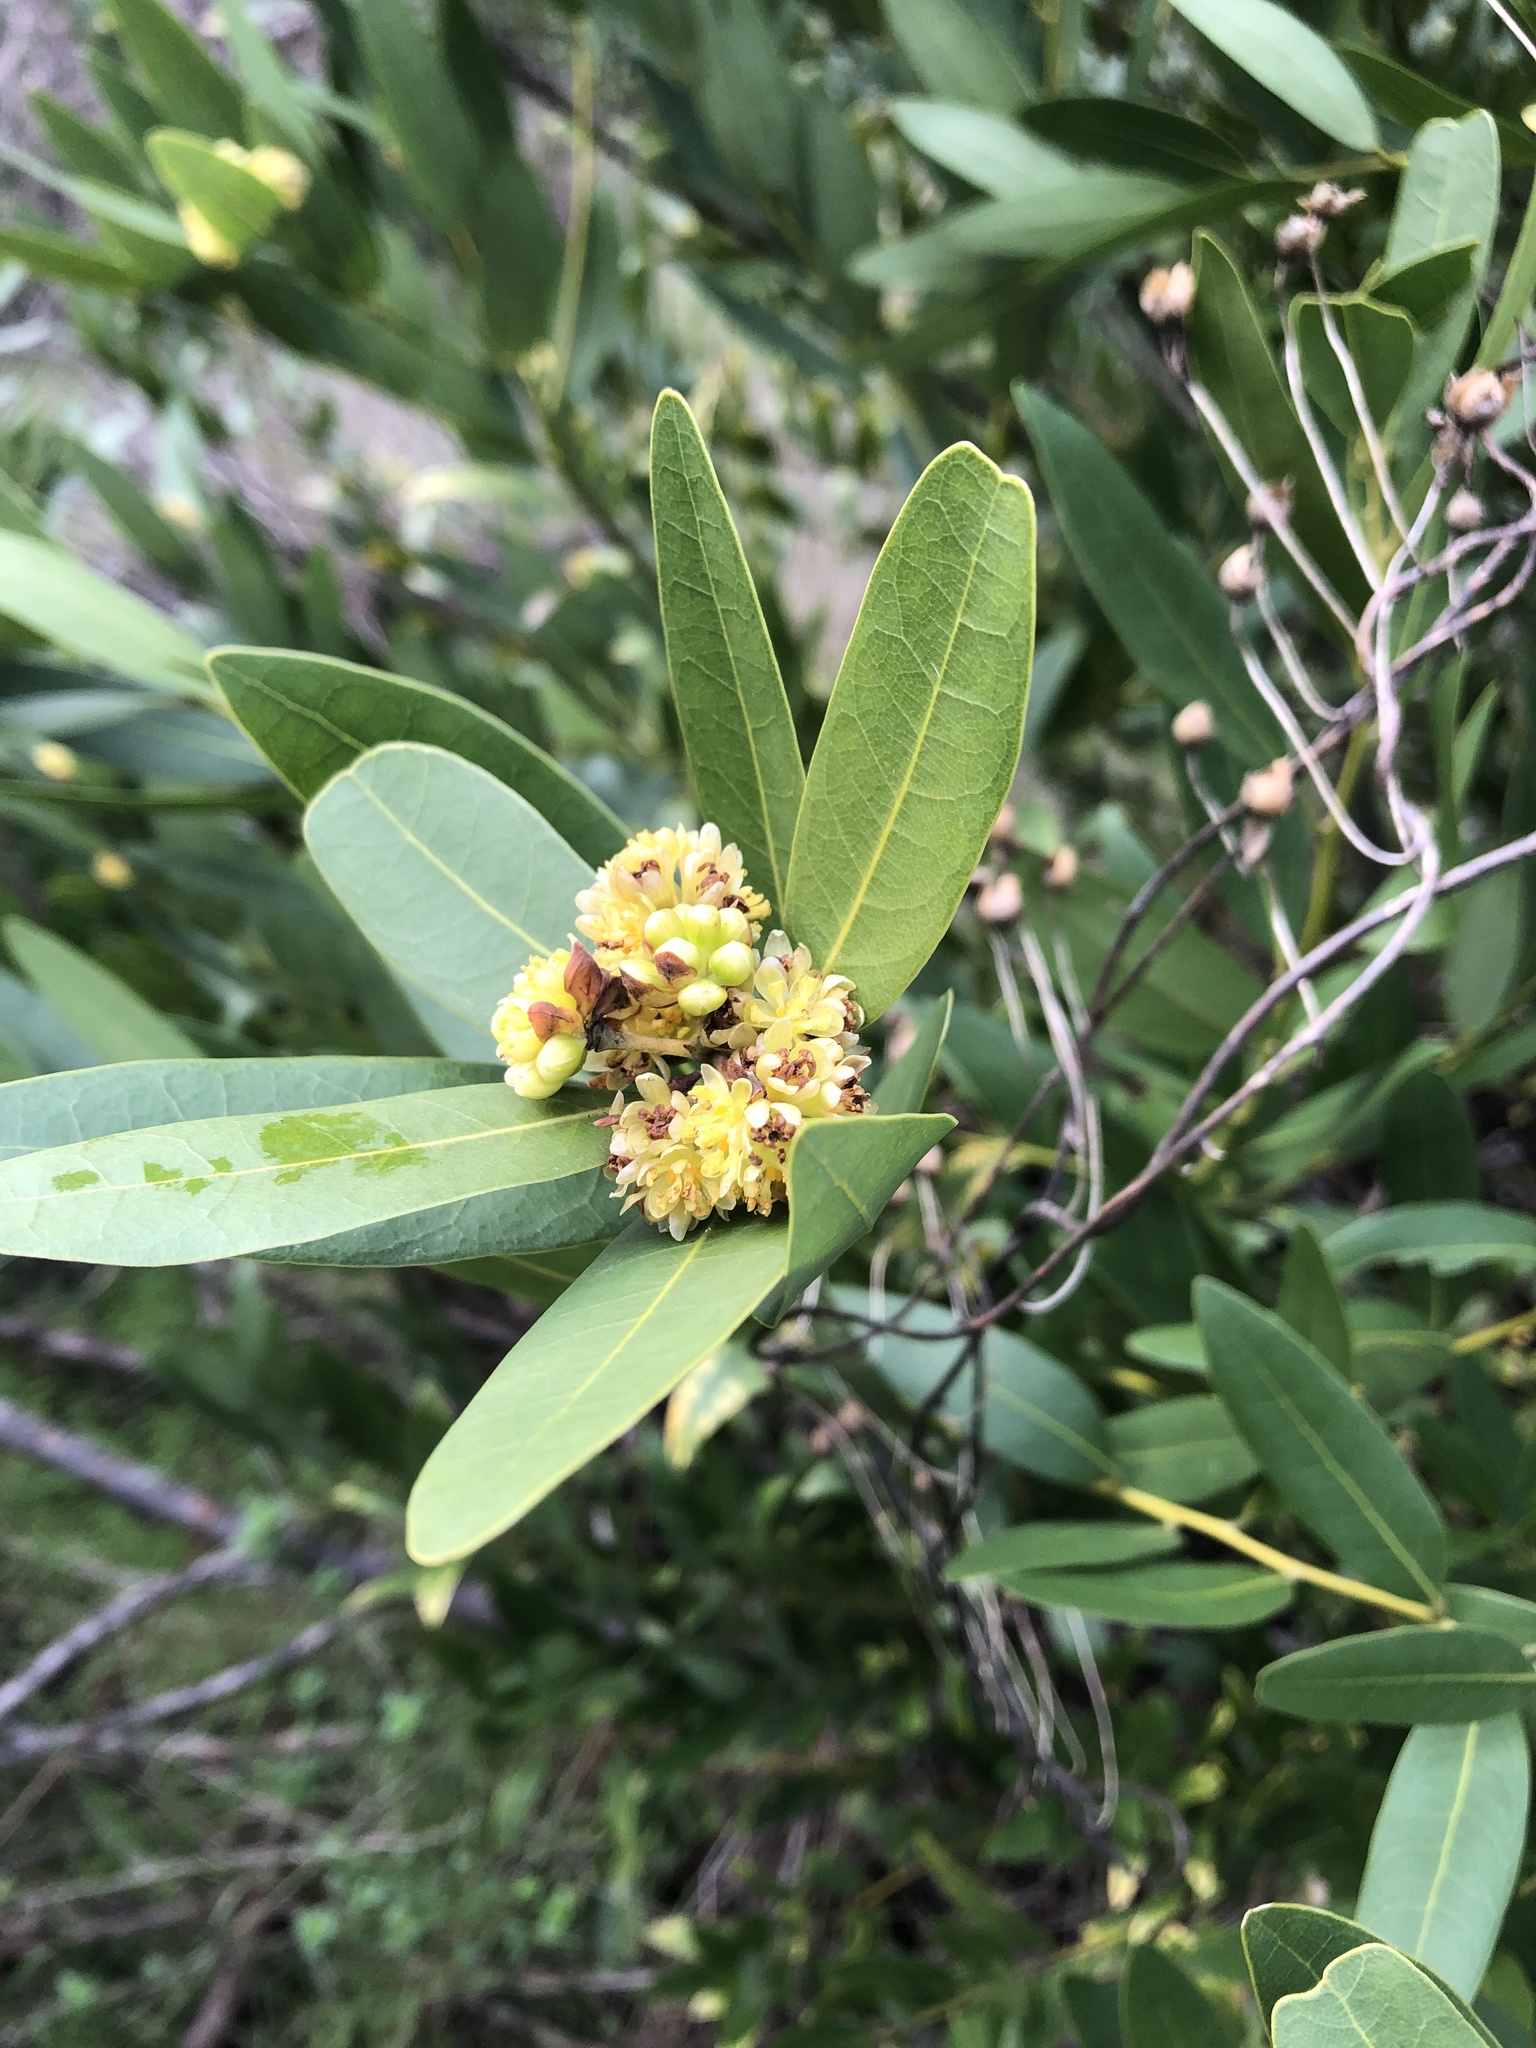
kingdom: Plantae
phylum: Tracheophyta
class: Magnoliopsida
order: Laurales
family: Lauraceae
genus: Umbellularia
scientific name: Umbellularia californica
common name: California bay
